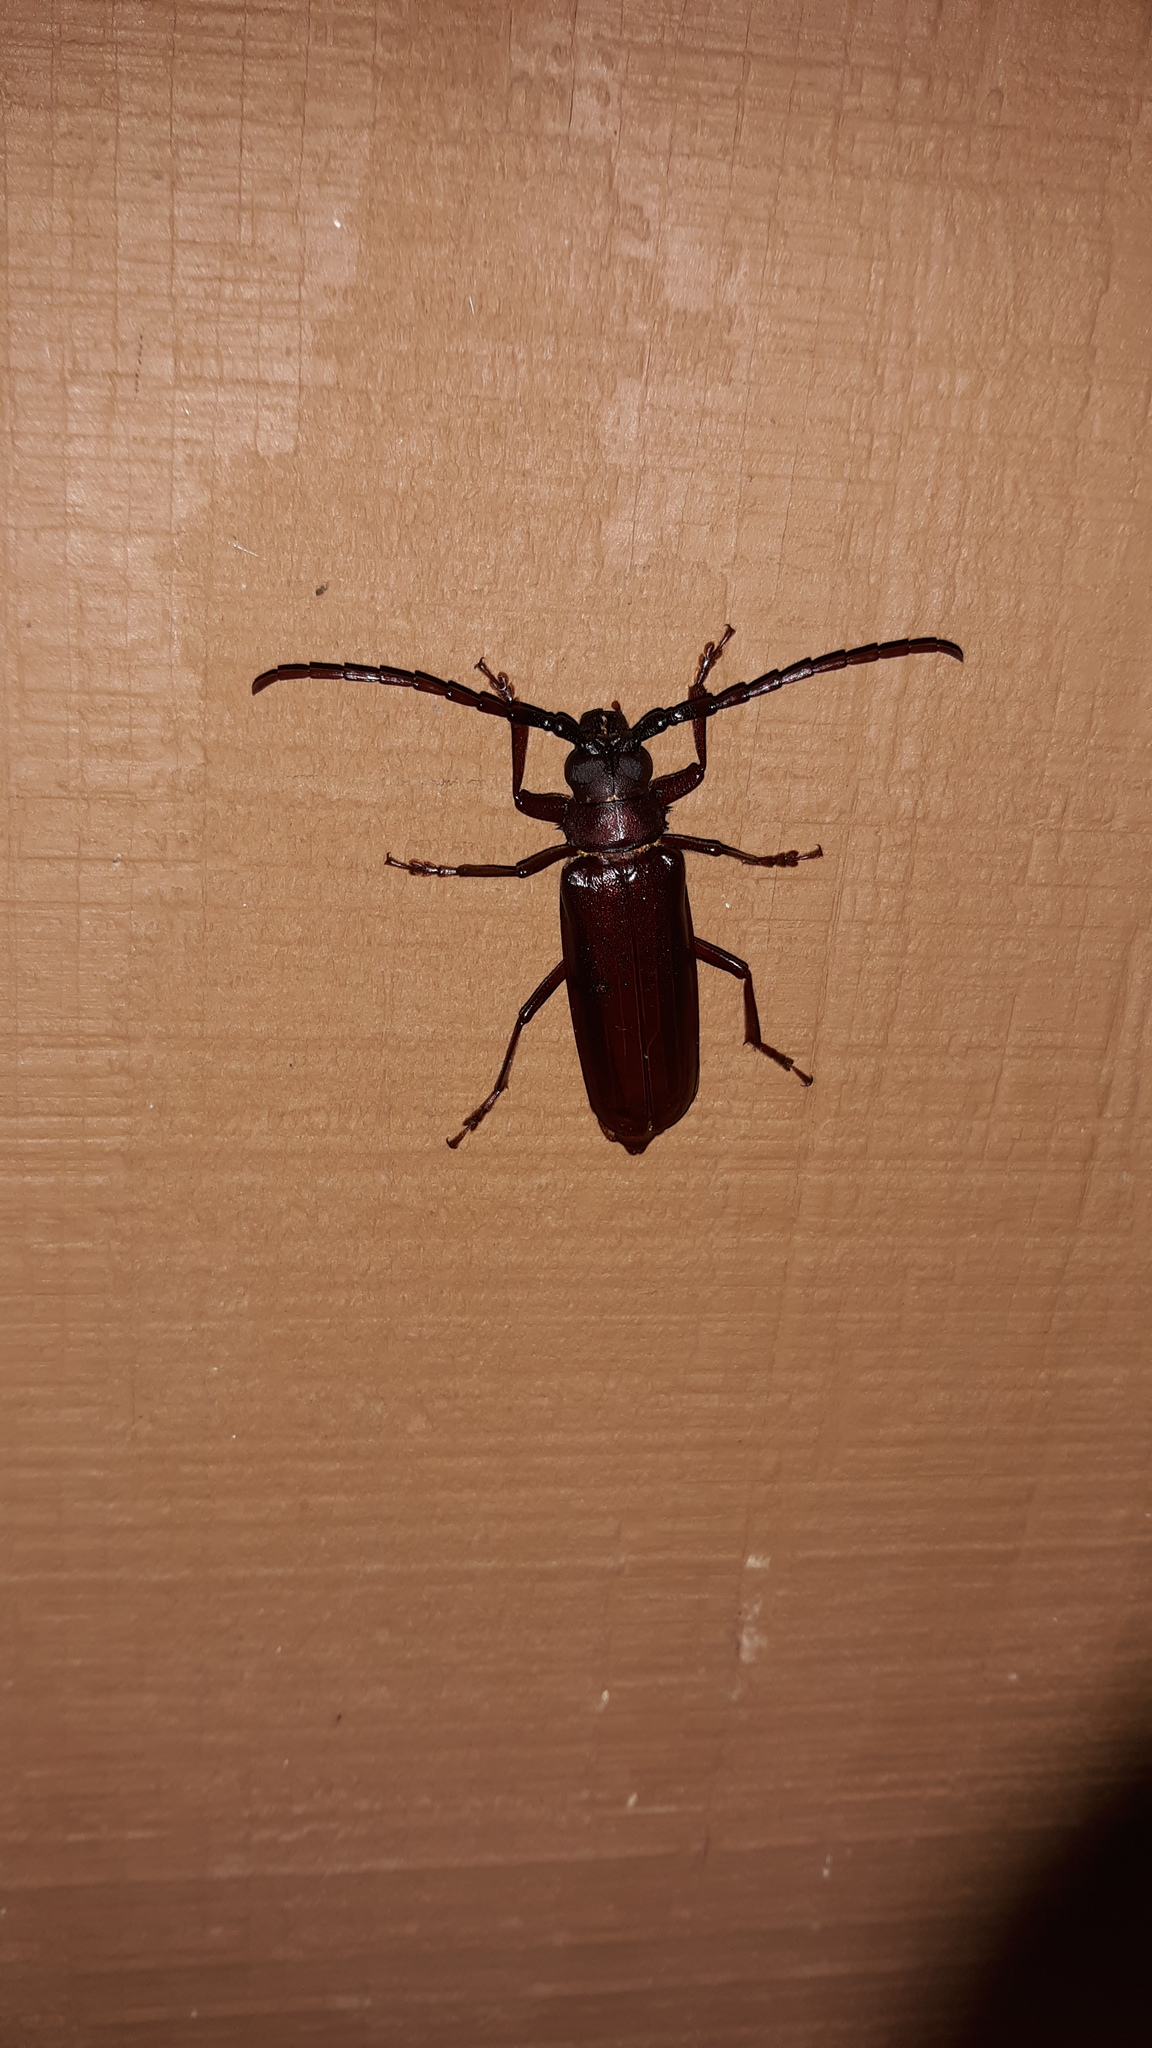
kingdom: Animalia
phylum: Arthropoda
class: Insecta
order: Coleoptera
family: Cerambycidae
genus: Orthosoma
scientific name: Orthosoma brunneum
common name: Brown prionid beetle
